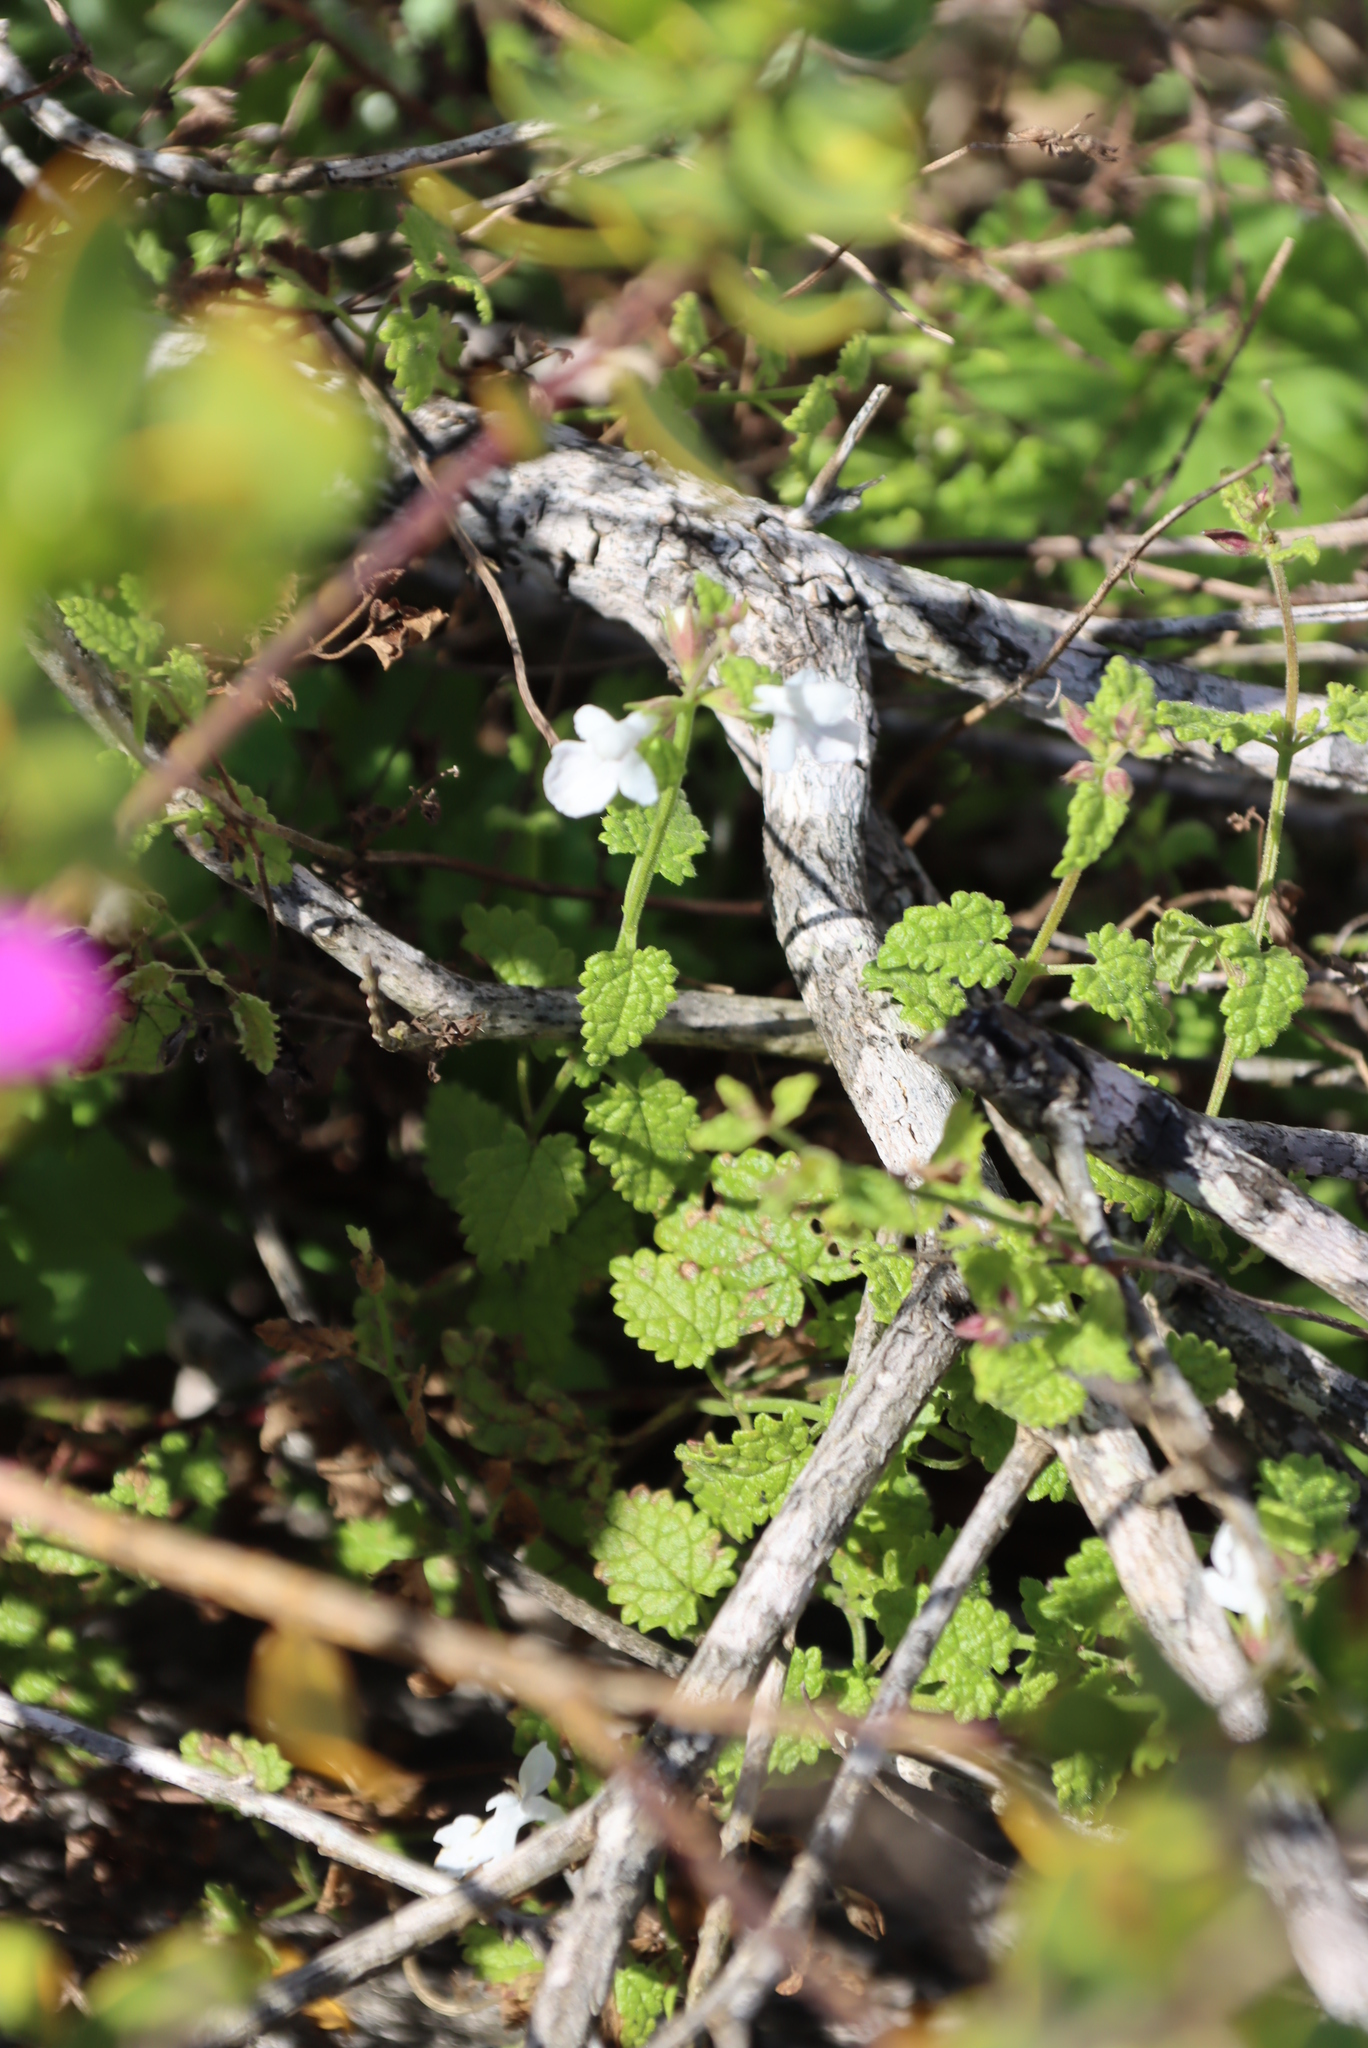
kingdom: Plantae
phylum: Tracheophyta
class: Magnoliopsida
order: Lamiales
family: Lamiaceae
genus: Stachys
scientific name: Stachys aethiopica
